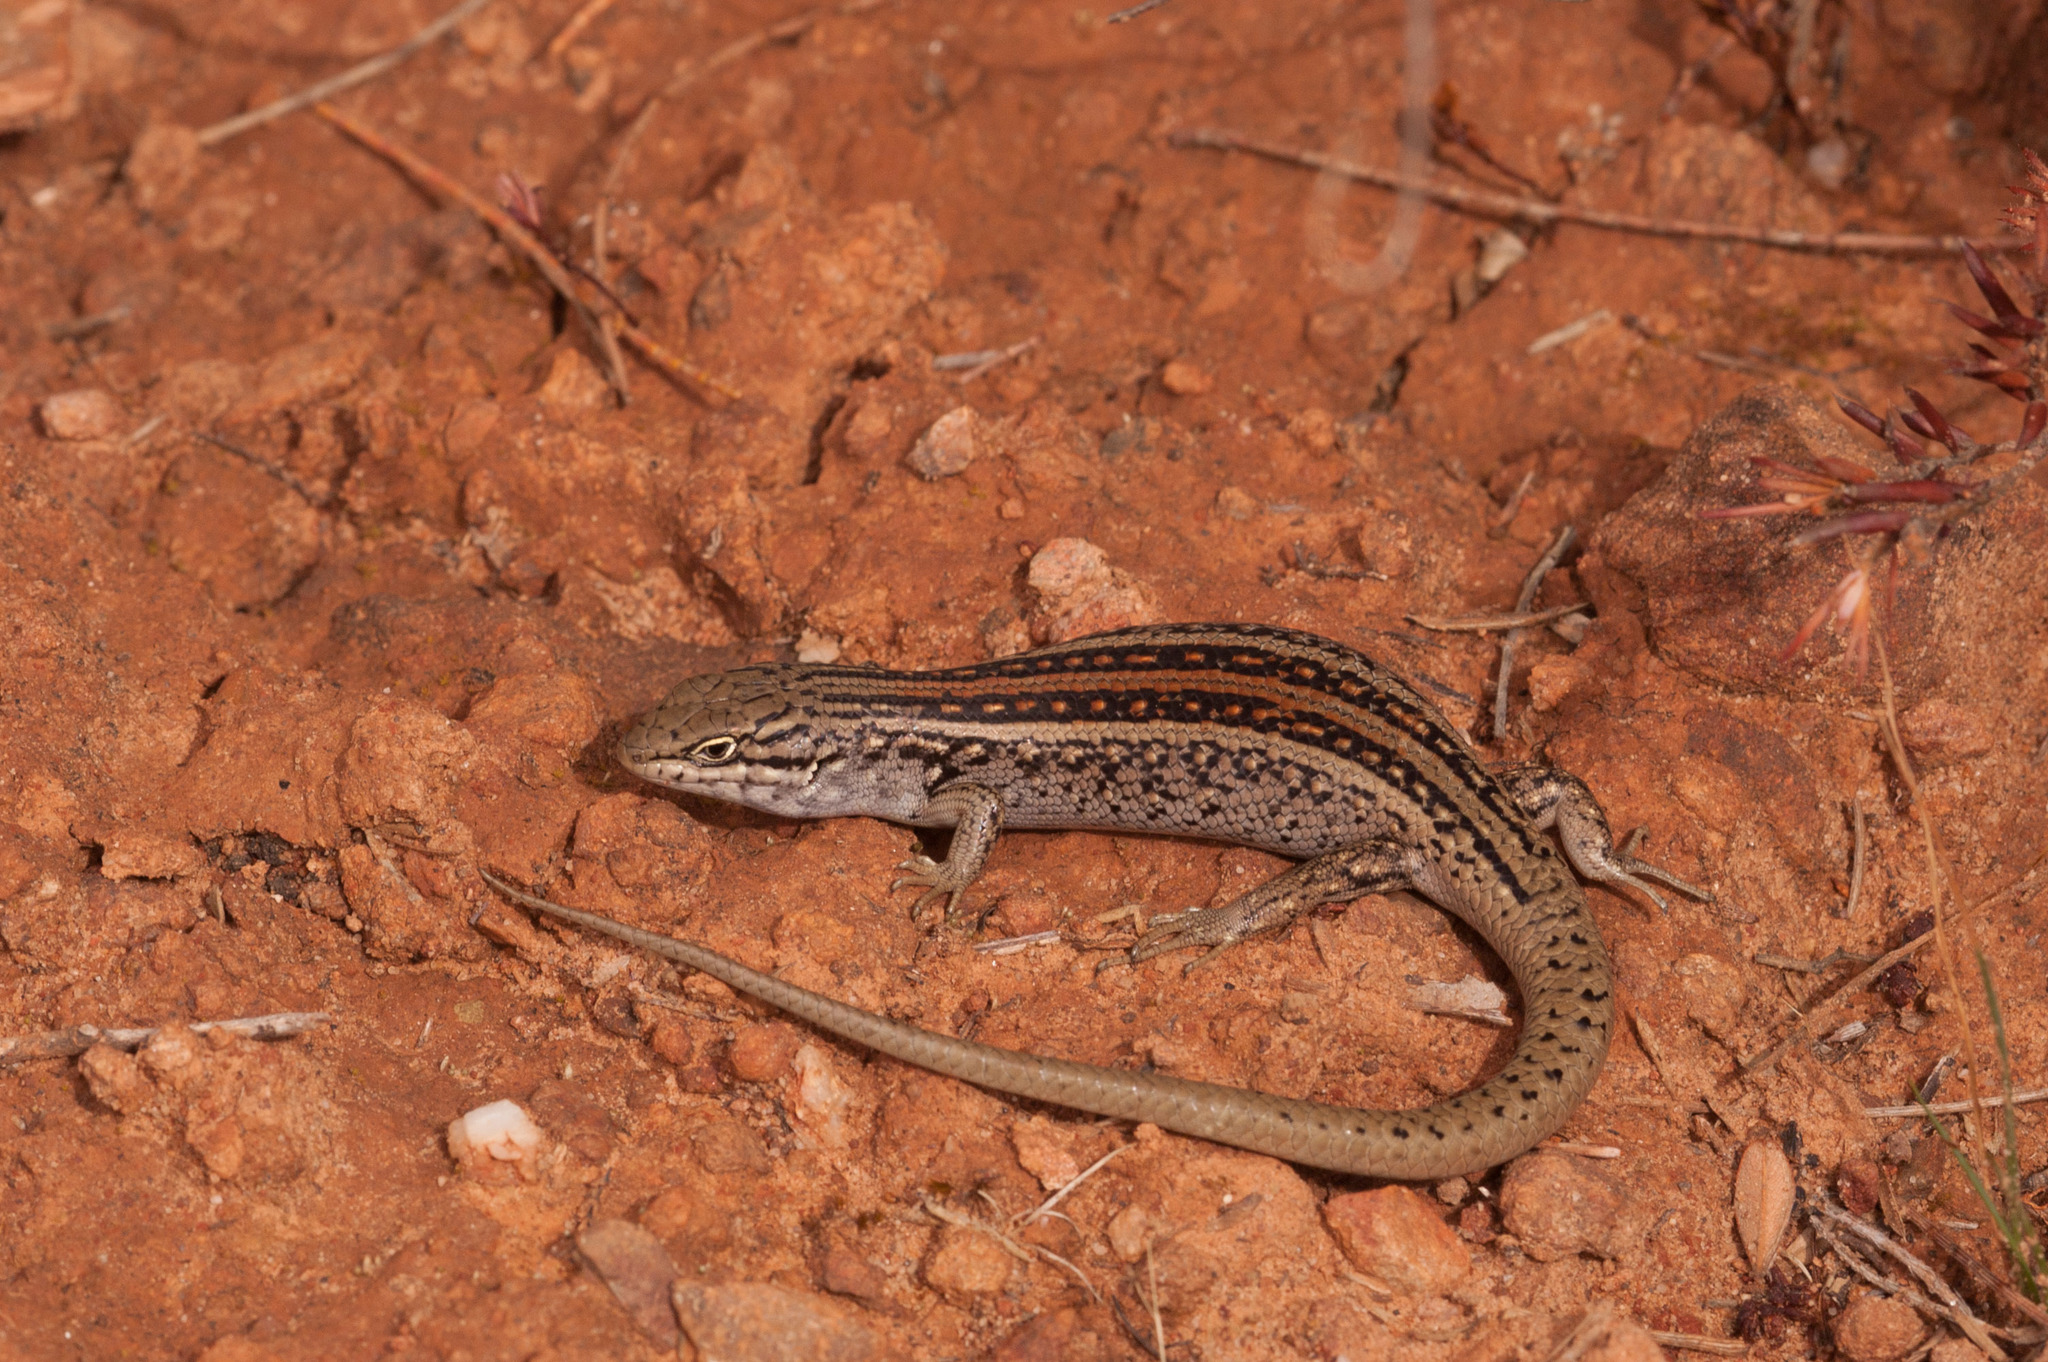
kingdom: Animalia
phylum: Chordata
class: Squamata
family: Scincidae
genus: Liopholis
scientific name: Liopholis whitii
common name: White's rock-skink
